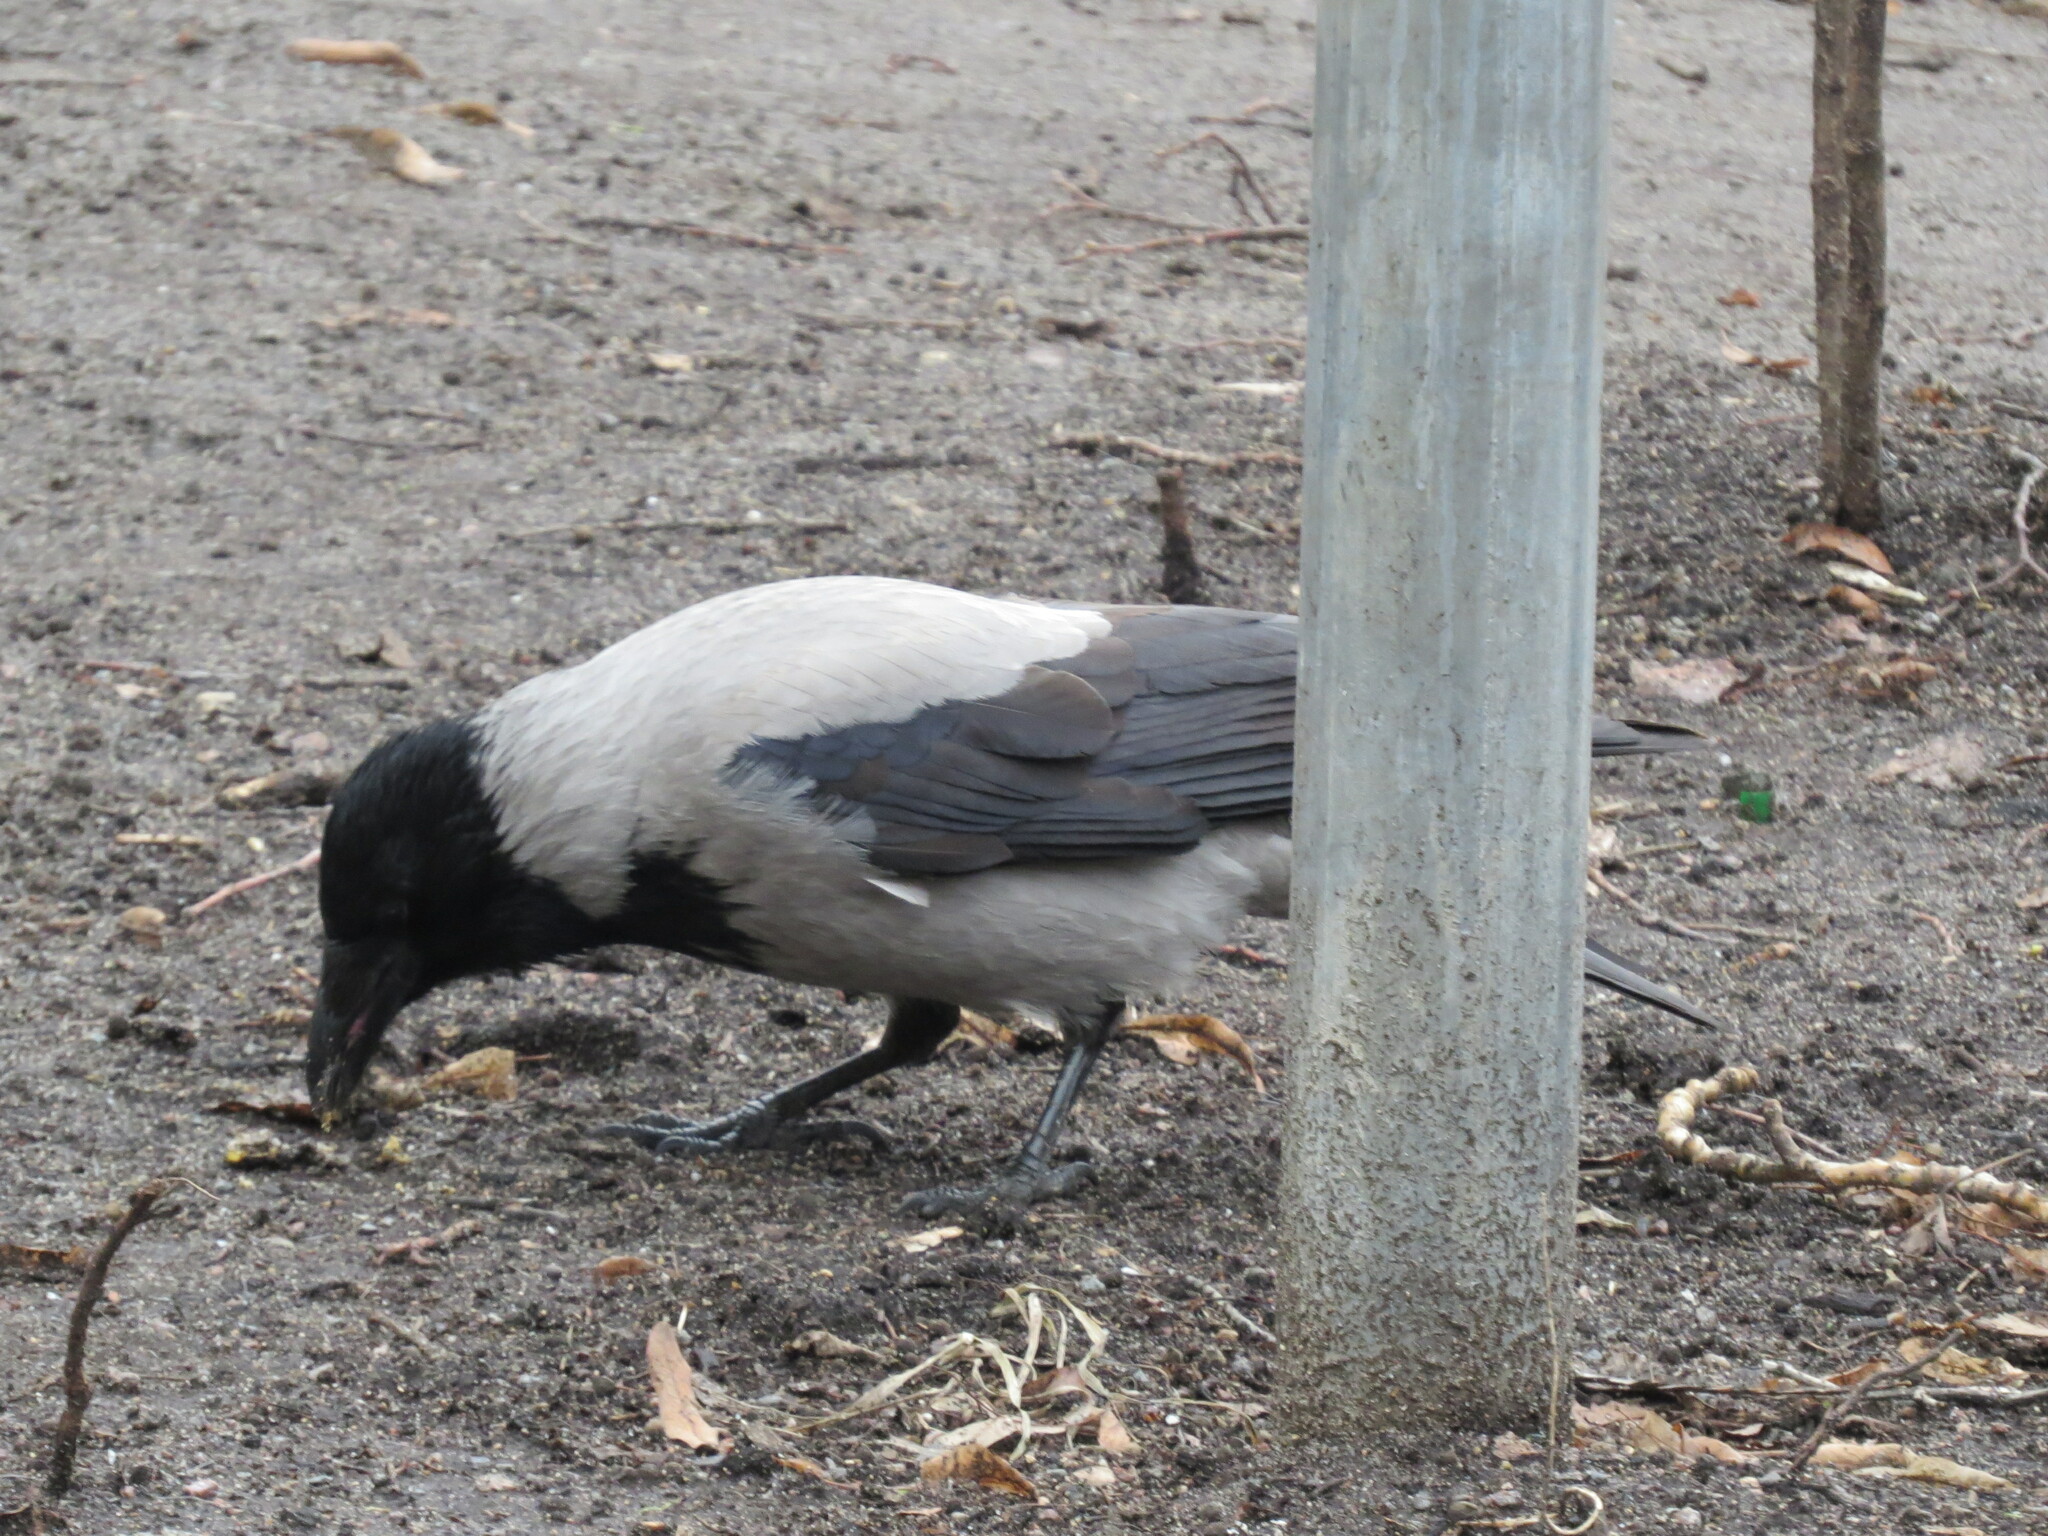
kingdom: Animalia
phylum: Chordata
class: Aves
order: Passeriformes
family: Corvidae
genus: Corvus
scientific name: Corvus cornix
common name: Hooded crow
